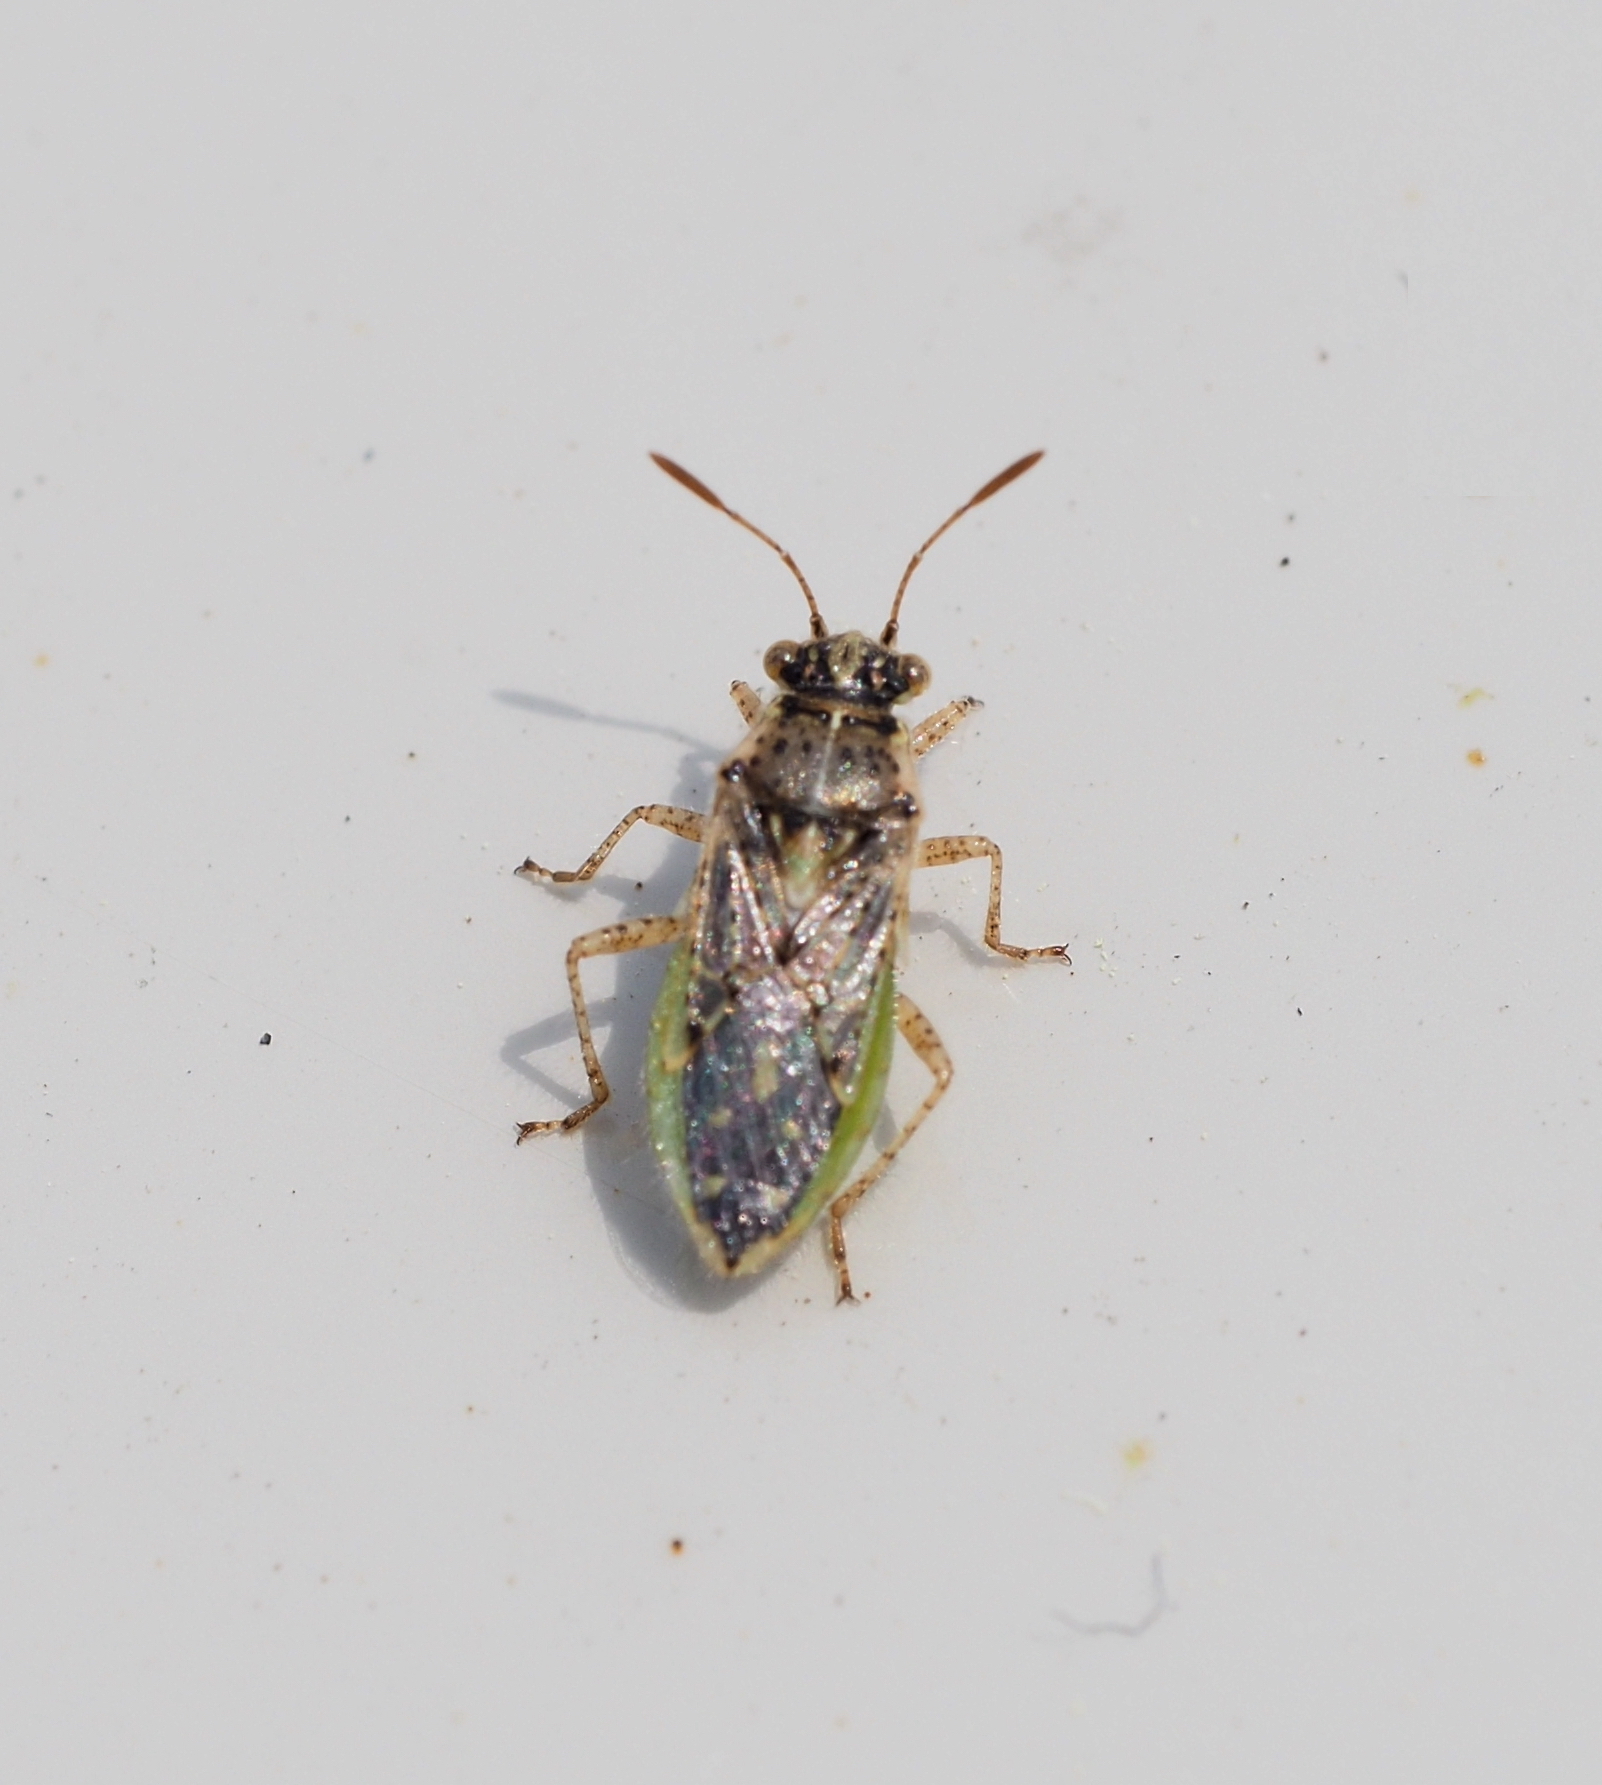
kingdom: Animalia
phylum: Arthropoda
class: Insecta
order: Hemiptera
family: Rhopalidae
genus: Brachycarenus
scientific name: Brachycarenus tigrinus
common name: Scentless plant bug
